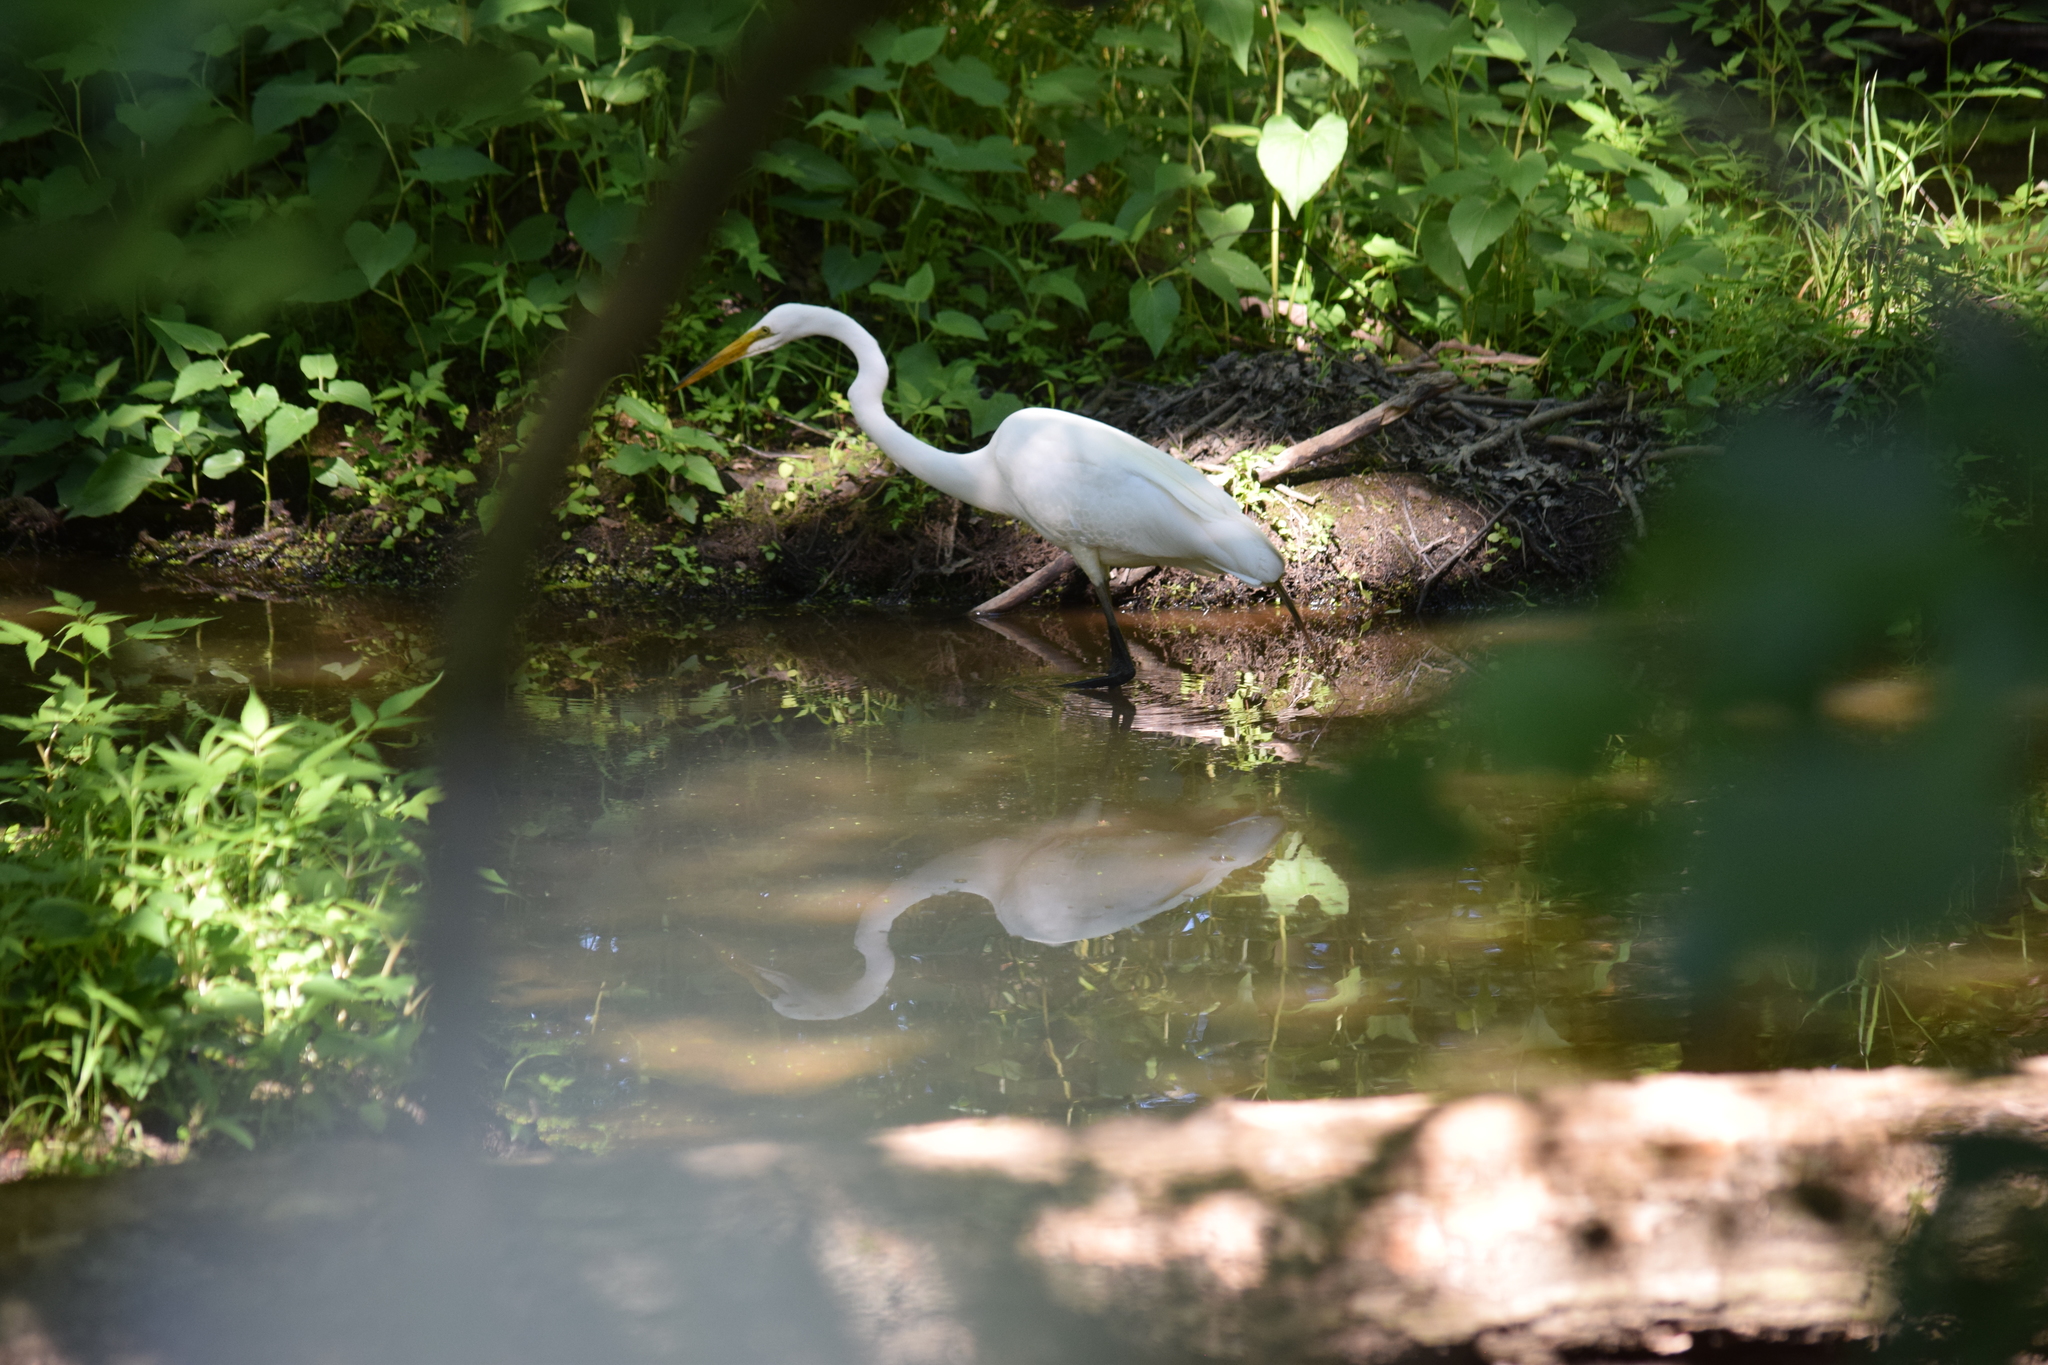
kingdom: Animalia
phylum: Chordata
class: Aves
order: Pelecaniformes
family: Ardeidae
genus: Ardea
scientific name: Ardea alba
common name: Great egret
